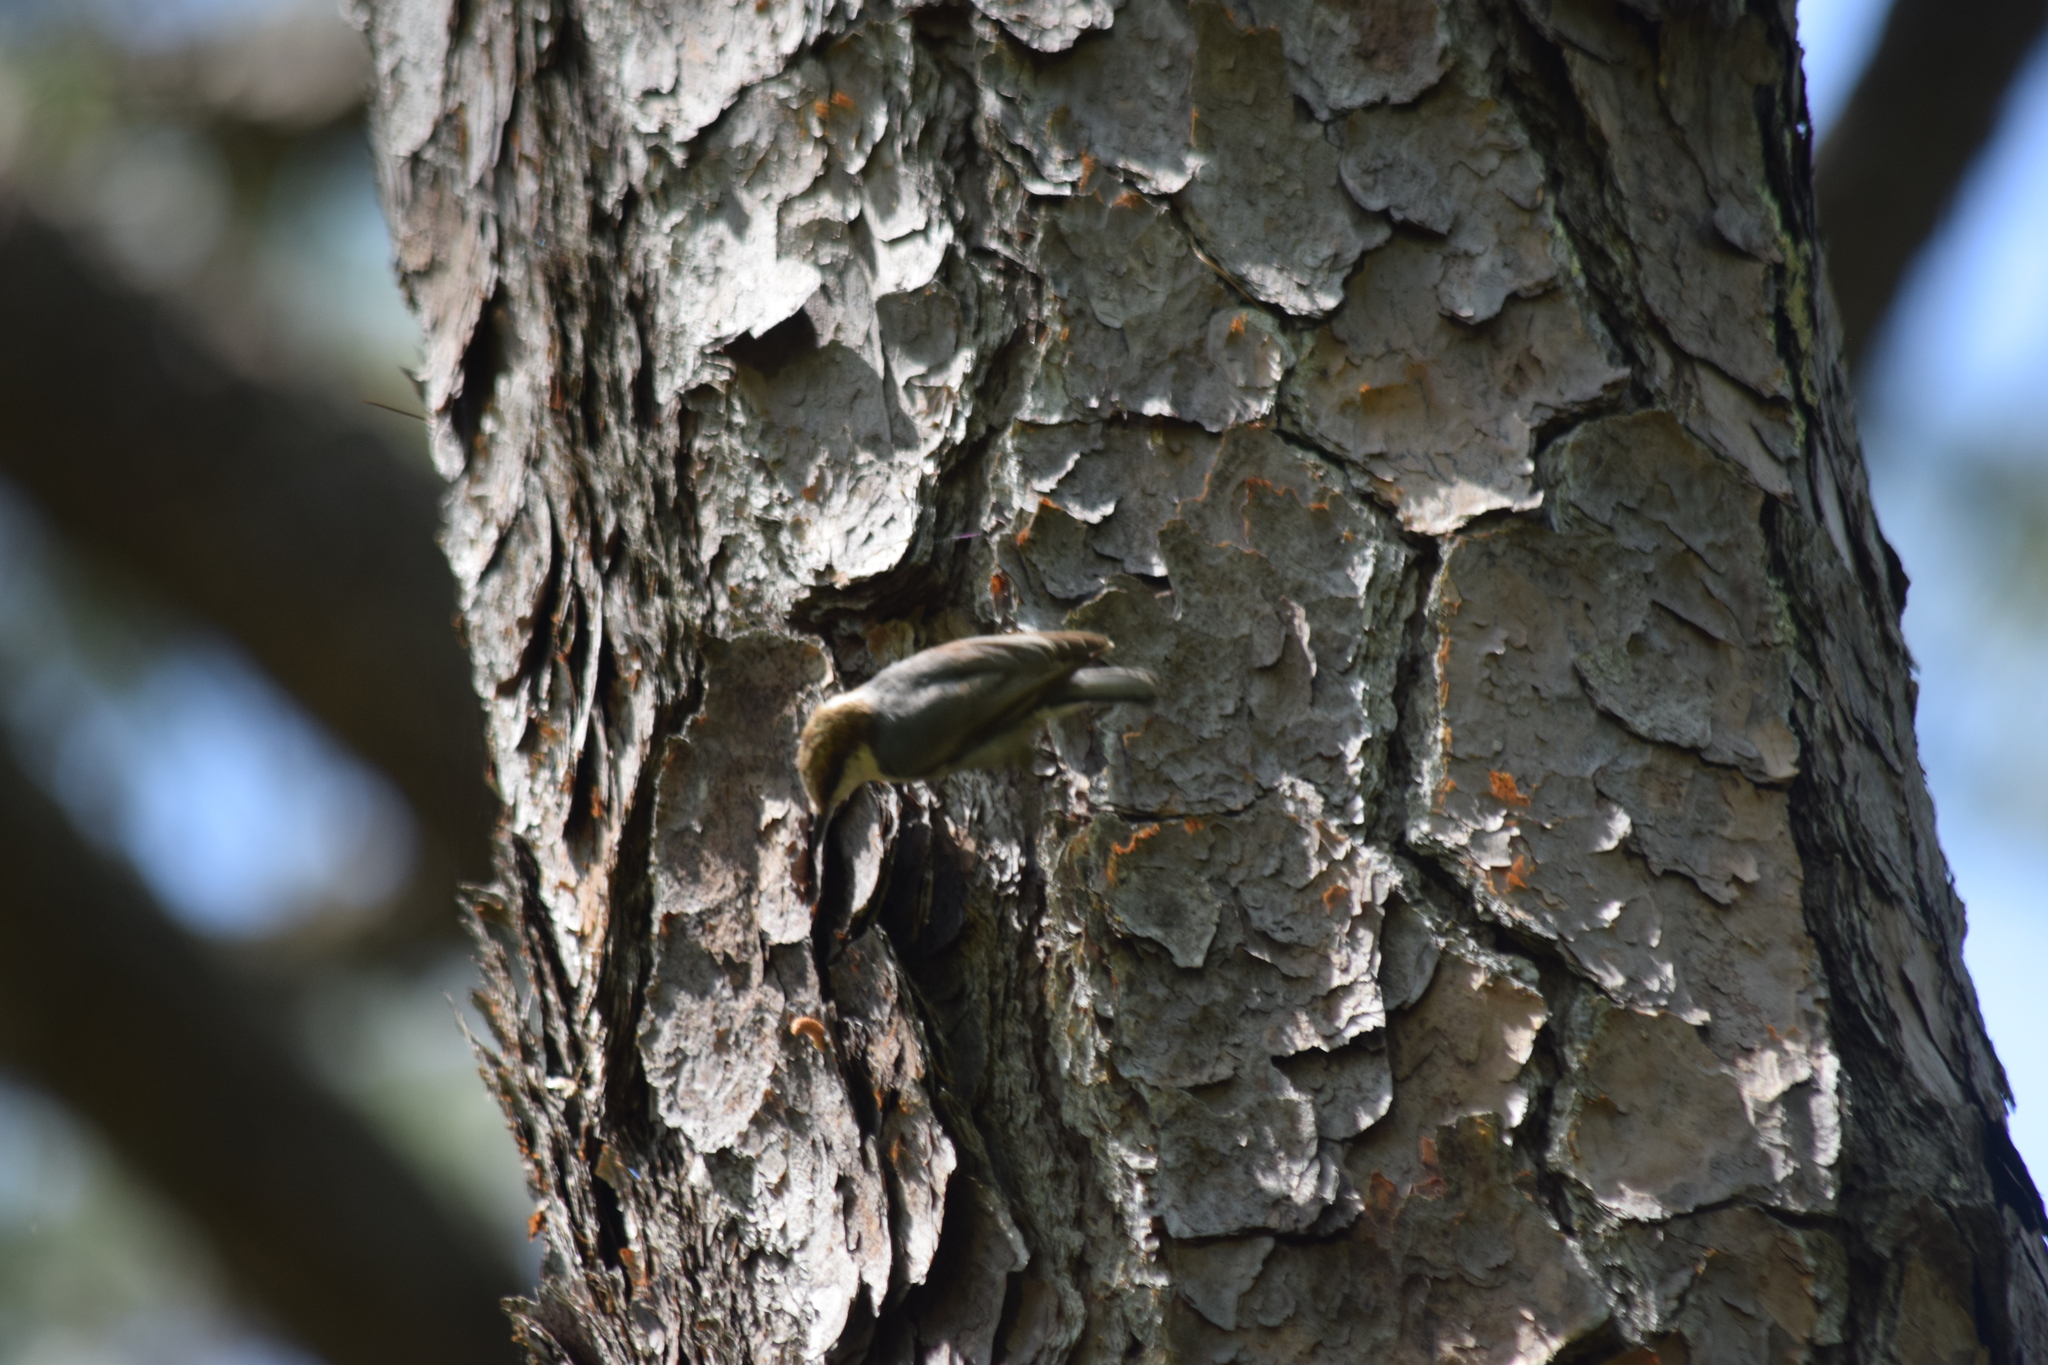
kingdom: Animalia
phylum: Chordata
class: Aves
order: Passeriformes
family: Sittidae
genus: Sitta
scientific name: Sitta pusilla
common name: Brown-headed nuthatch
